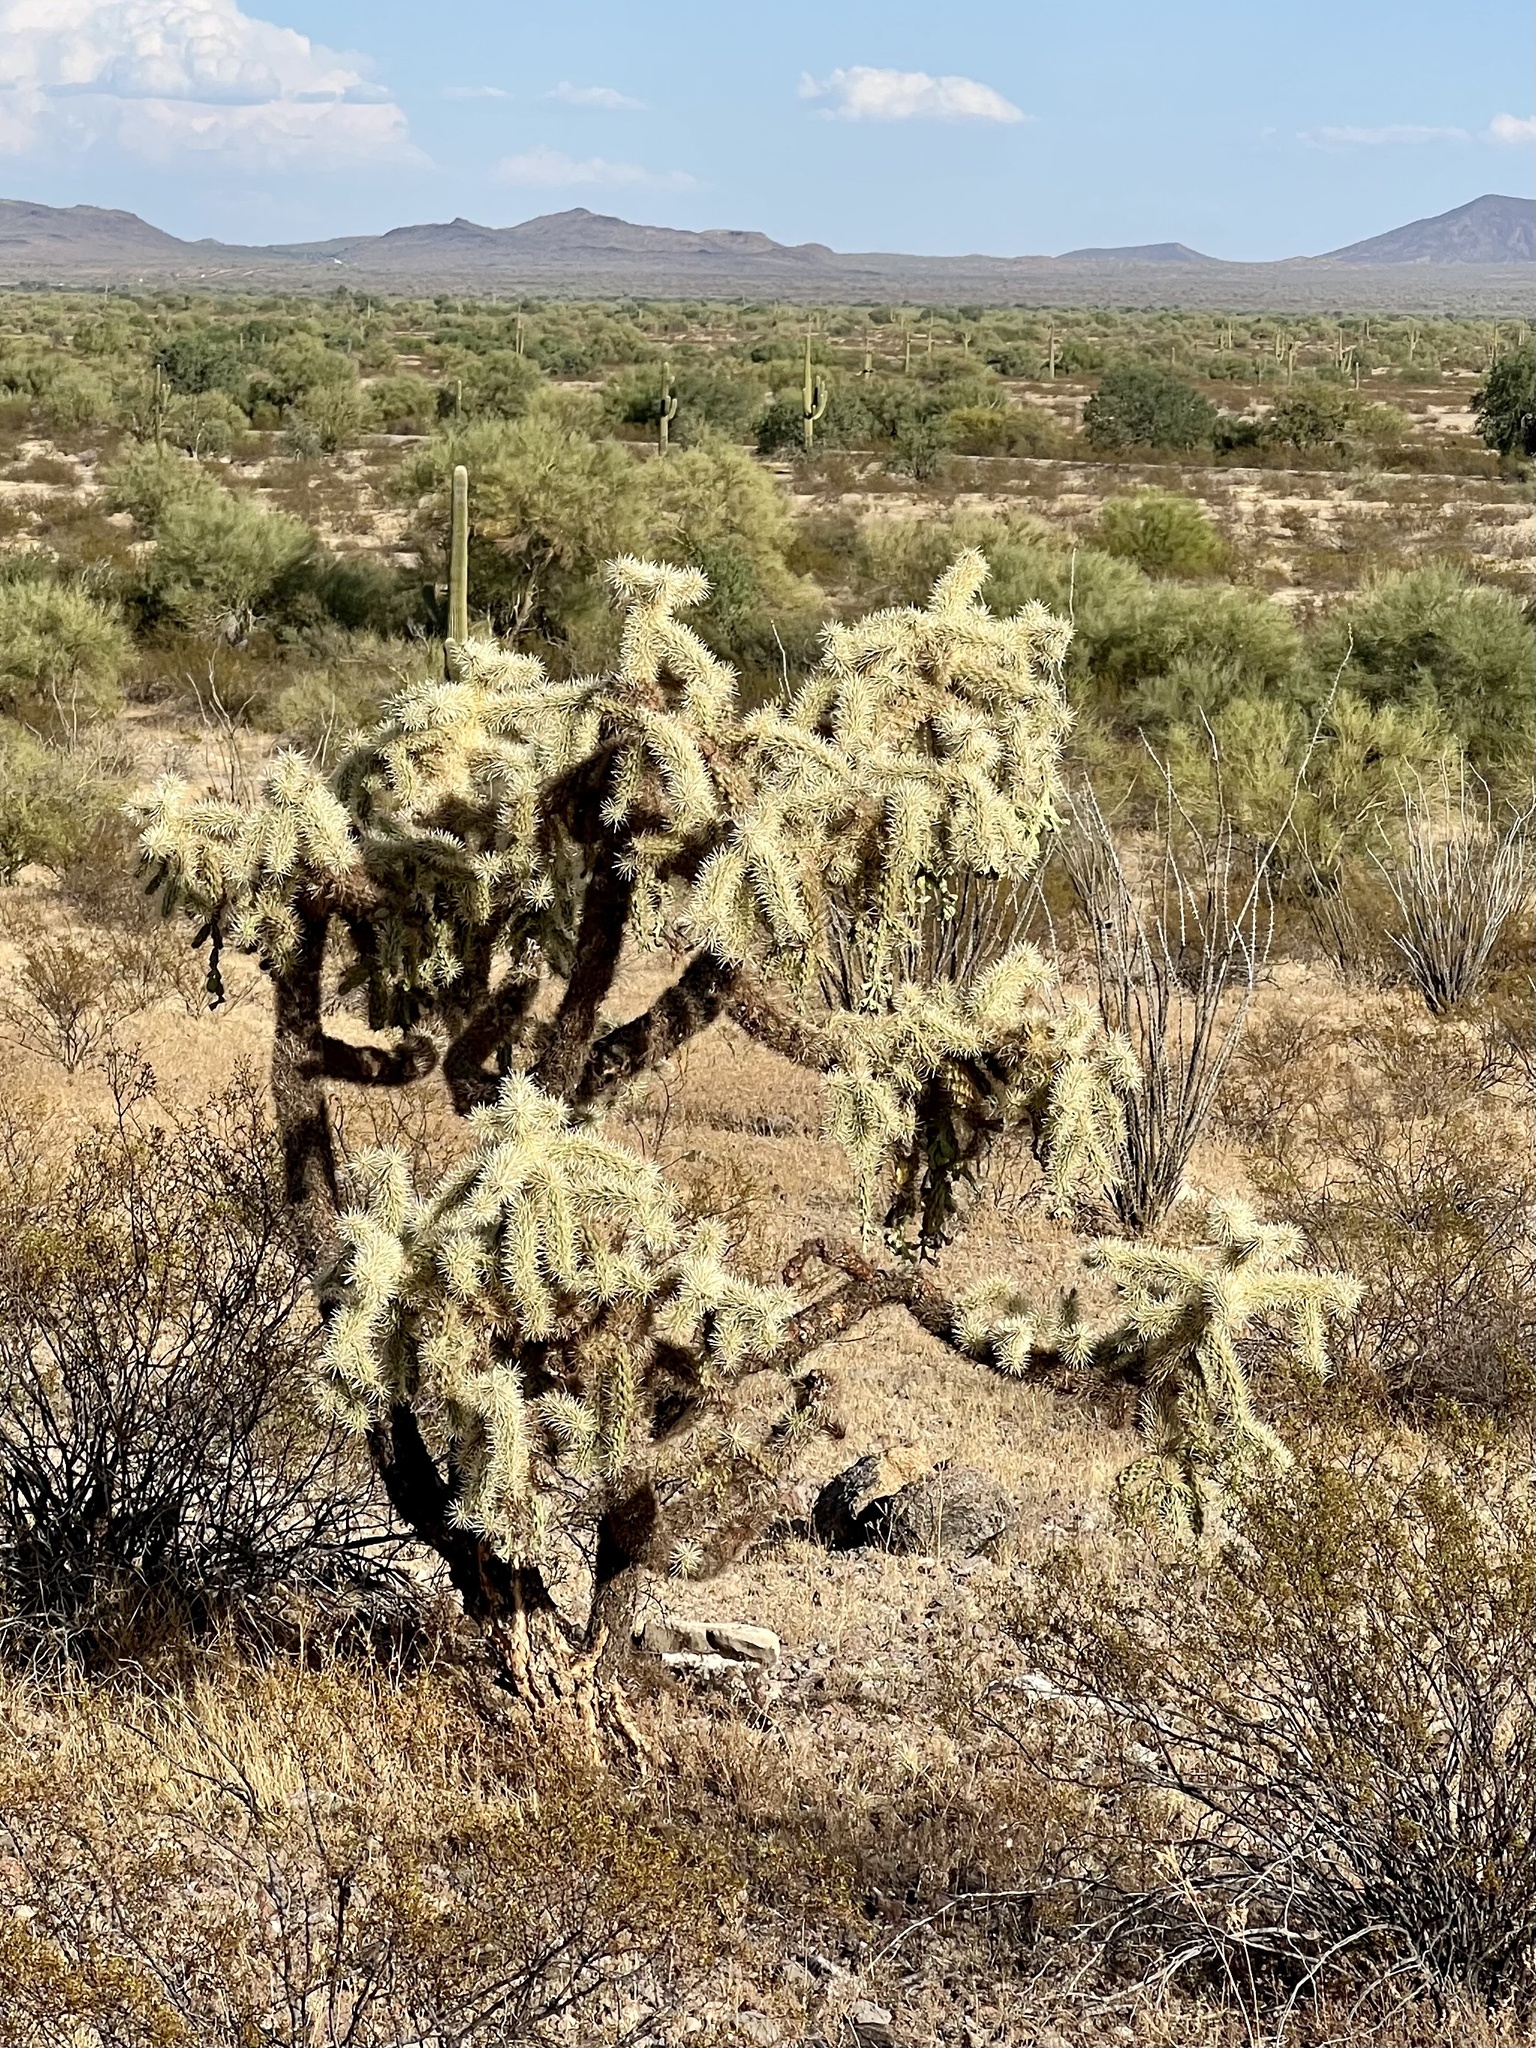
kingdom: Plantae
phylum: Tracheophyta
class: Magnoliopsida
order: Caryophyllales
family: Cactaceae
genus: Cylindropuntia
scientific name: Cylindropuntia fulgida
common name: Jumping cholla
